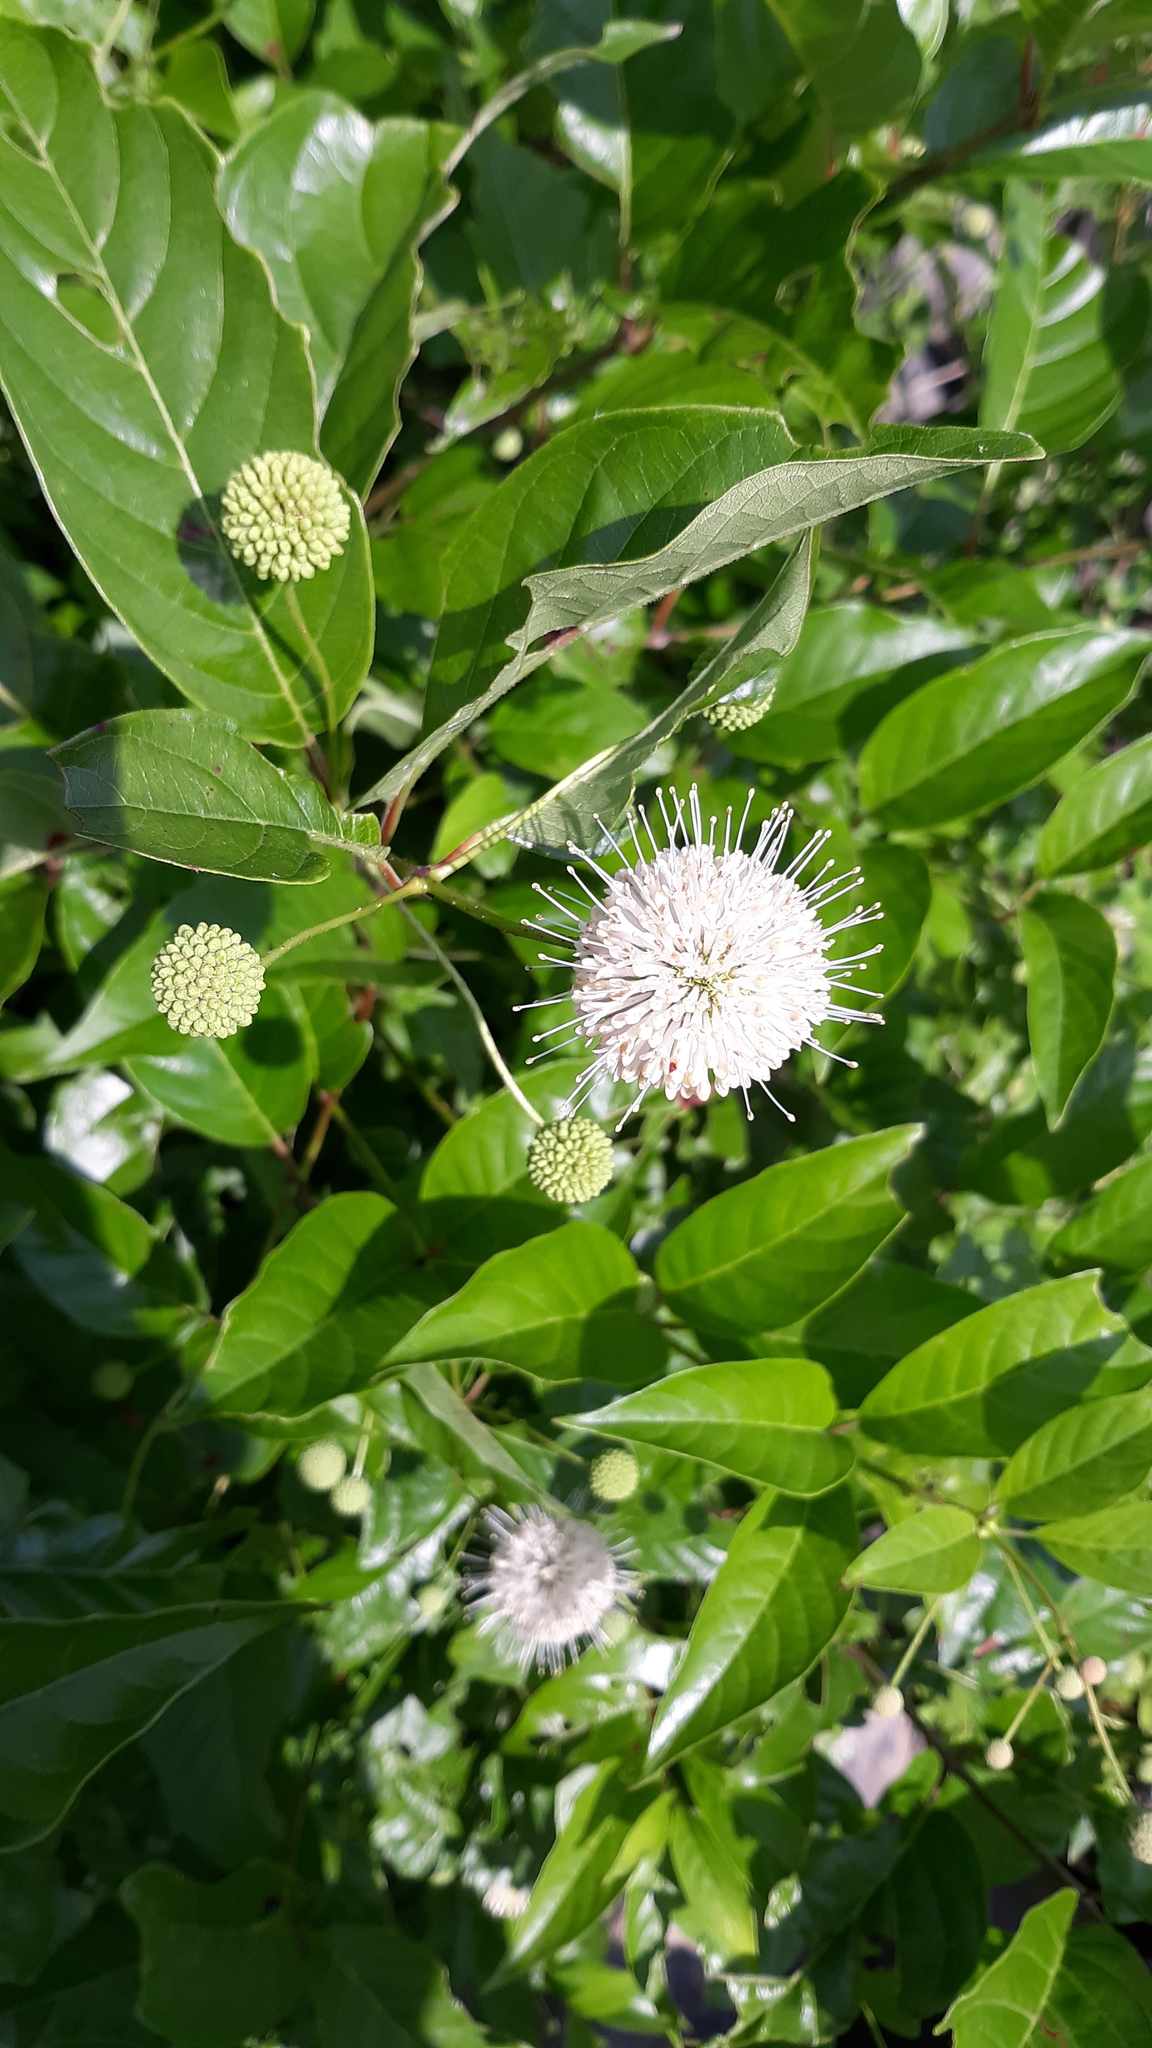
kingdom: Plantae
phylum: Tracheophyta
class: Magnoliopsida
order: Gentianales
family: Rubiaceae
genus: Cephalanthus
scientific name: Cephalanthus occidentalis
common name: Button-willow
